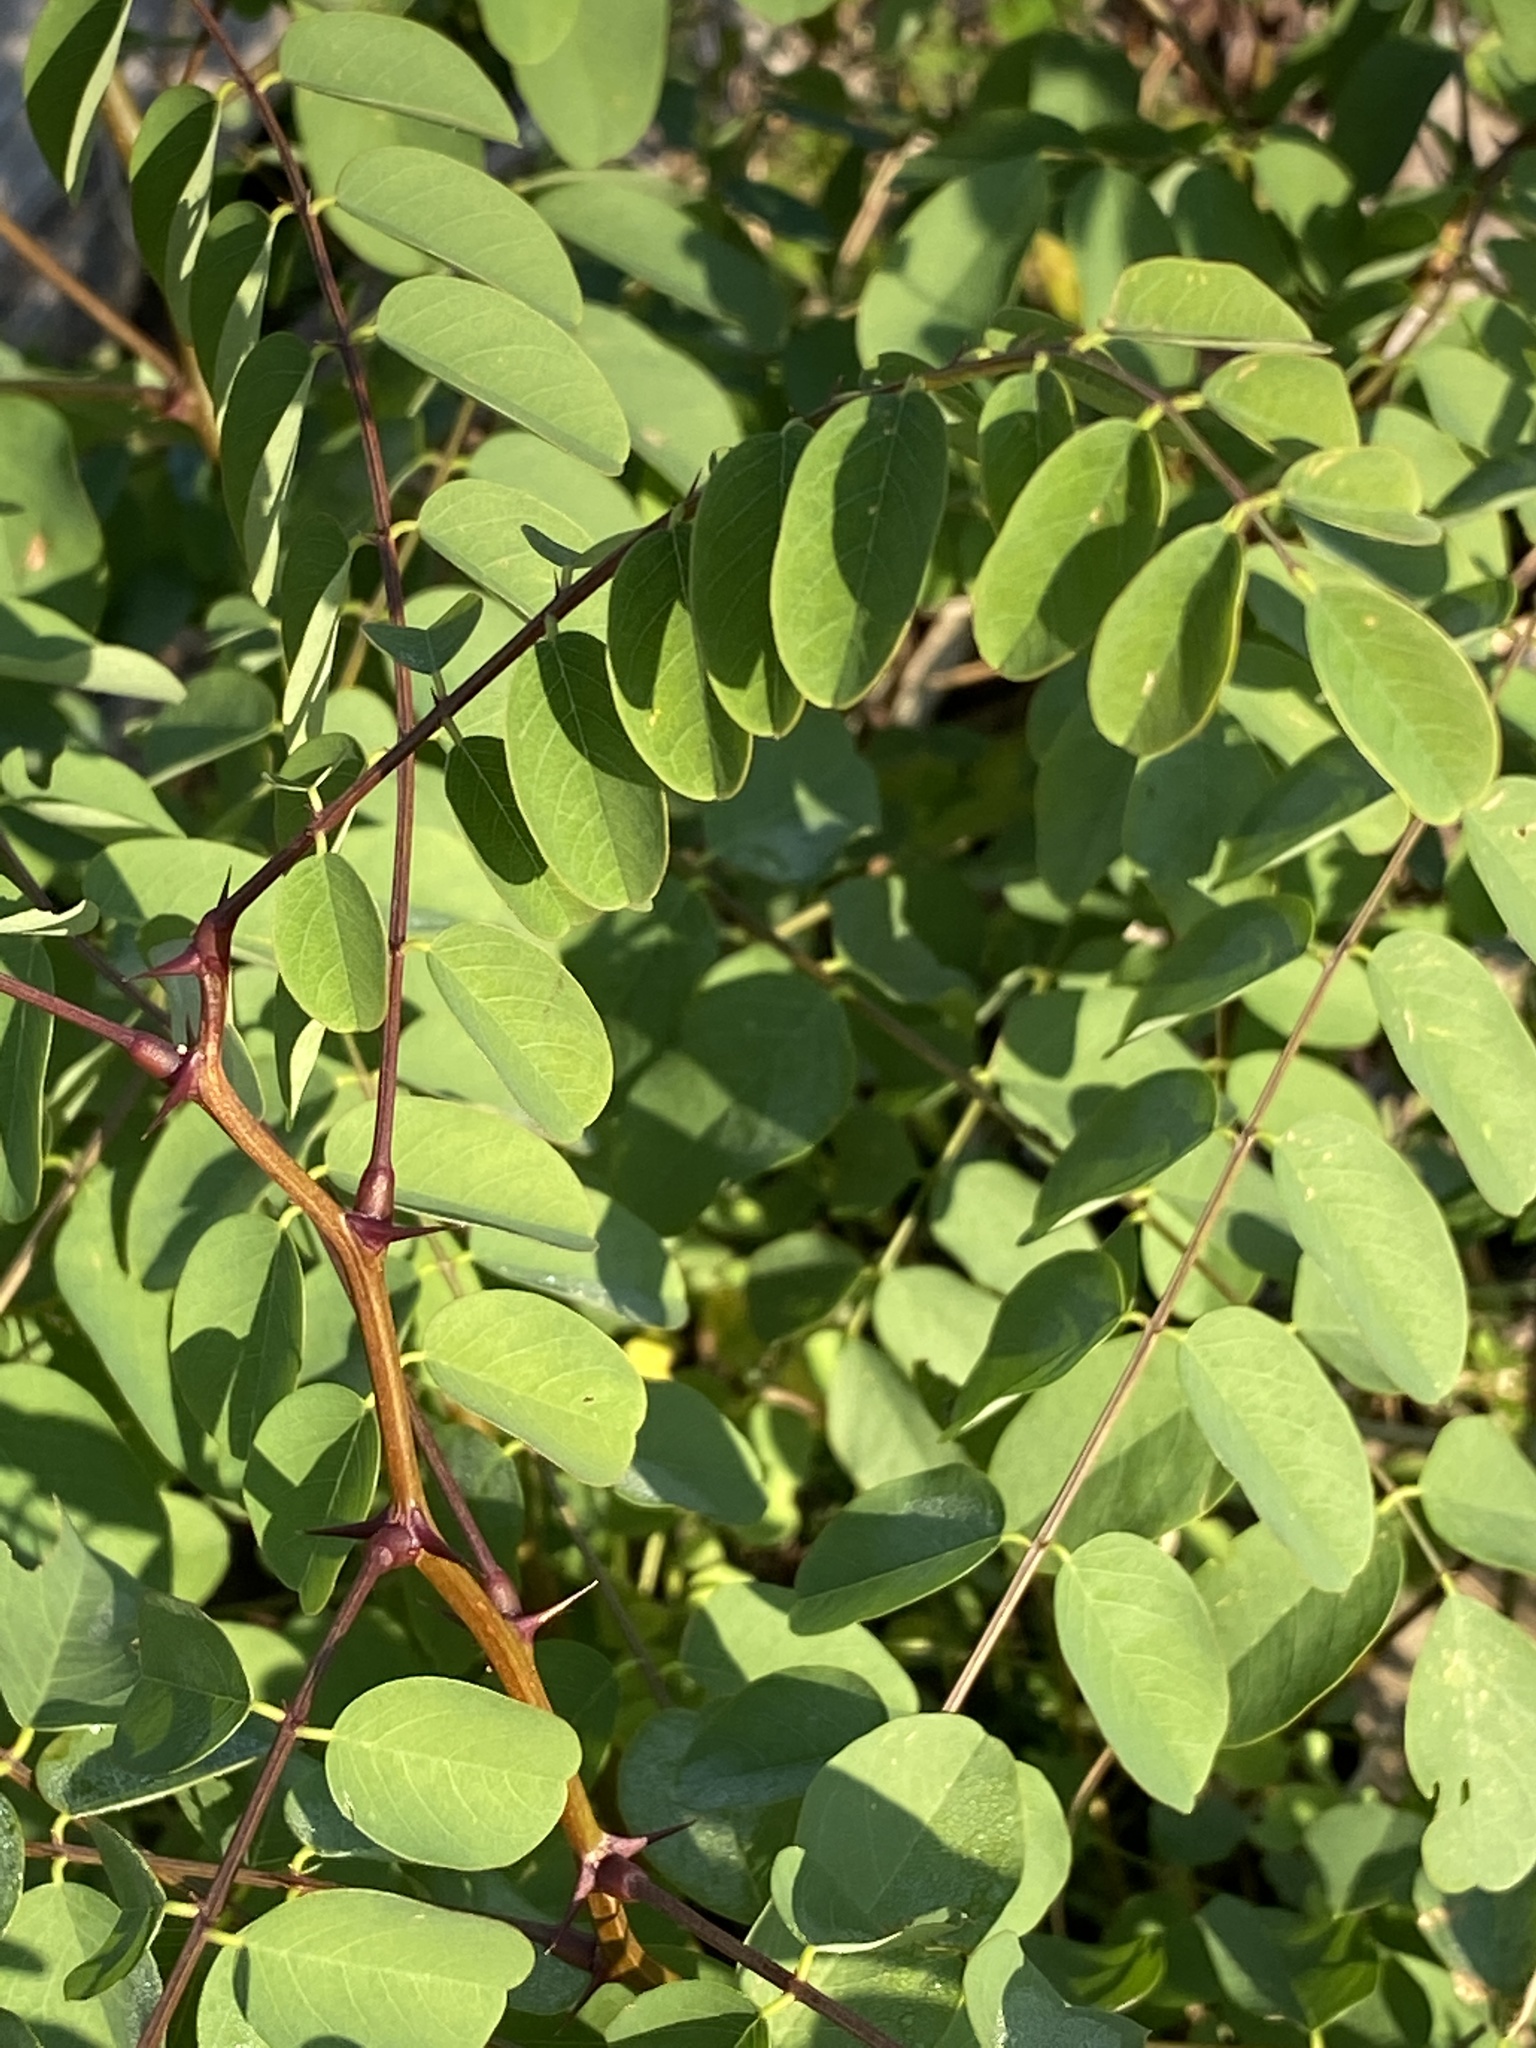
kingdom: Plantae
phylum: Tracheophyta
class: Magnoliopsida
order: Fabales
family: Fabaceae
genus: Robinia
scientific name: Robinia pseudoacacia
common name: Black locust
